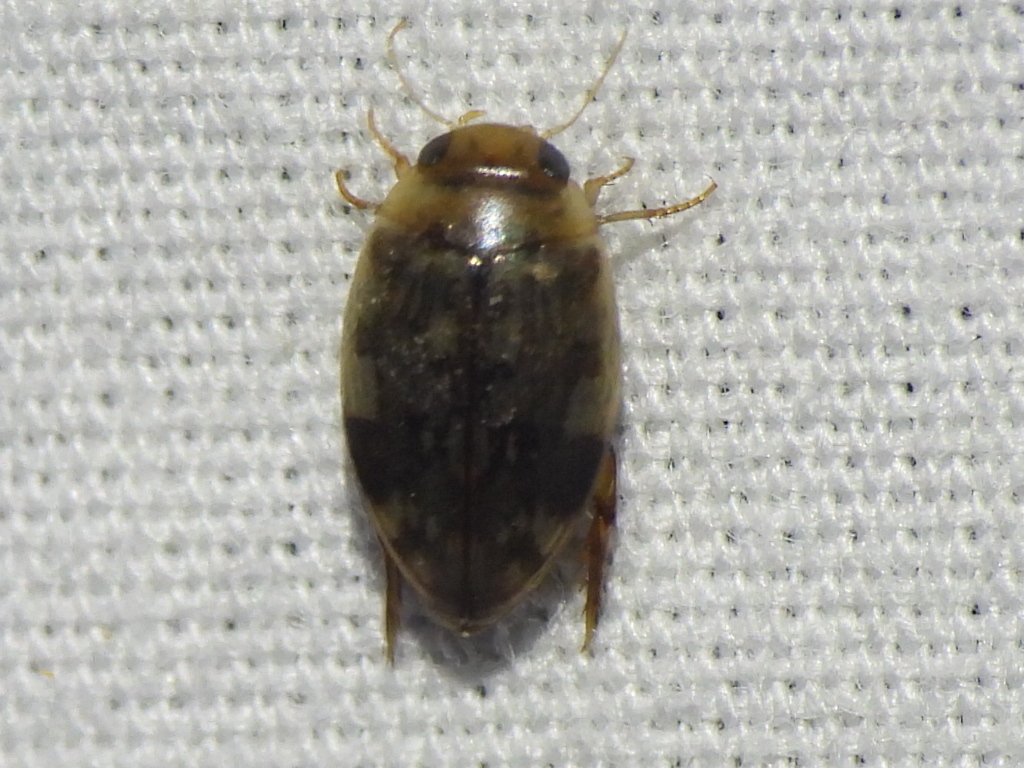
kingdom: Animalia
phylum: Arthropoda
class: Insecta
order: Coleoptera
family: Dytiscidae
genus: Laccophilus
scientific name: Laccophilus fasciatus
